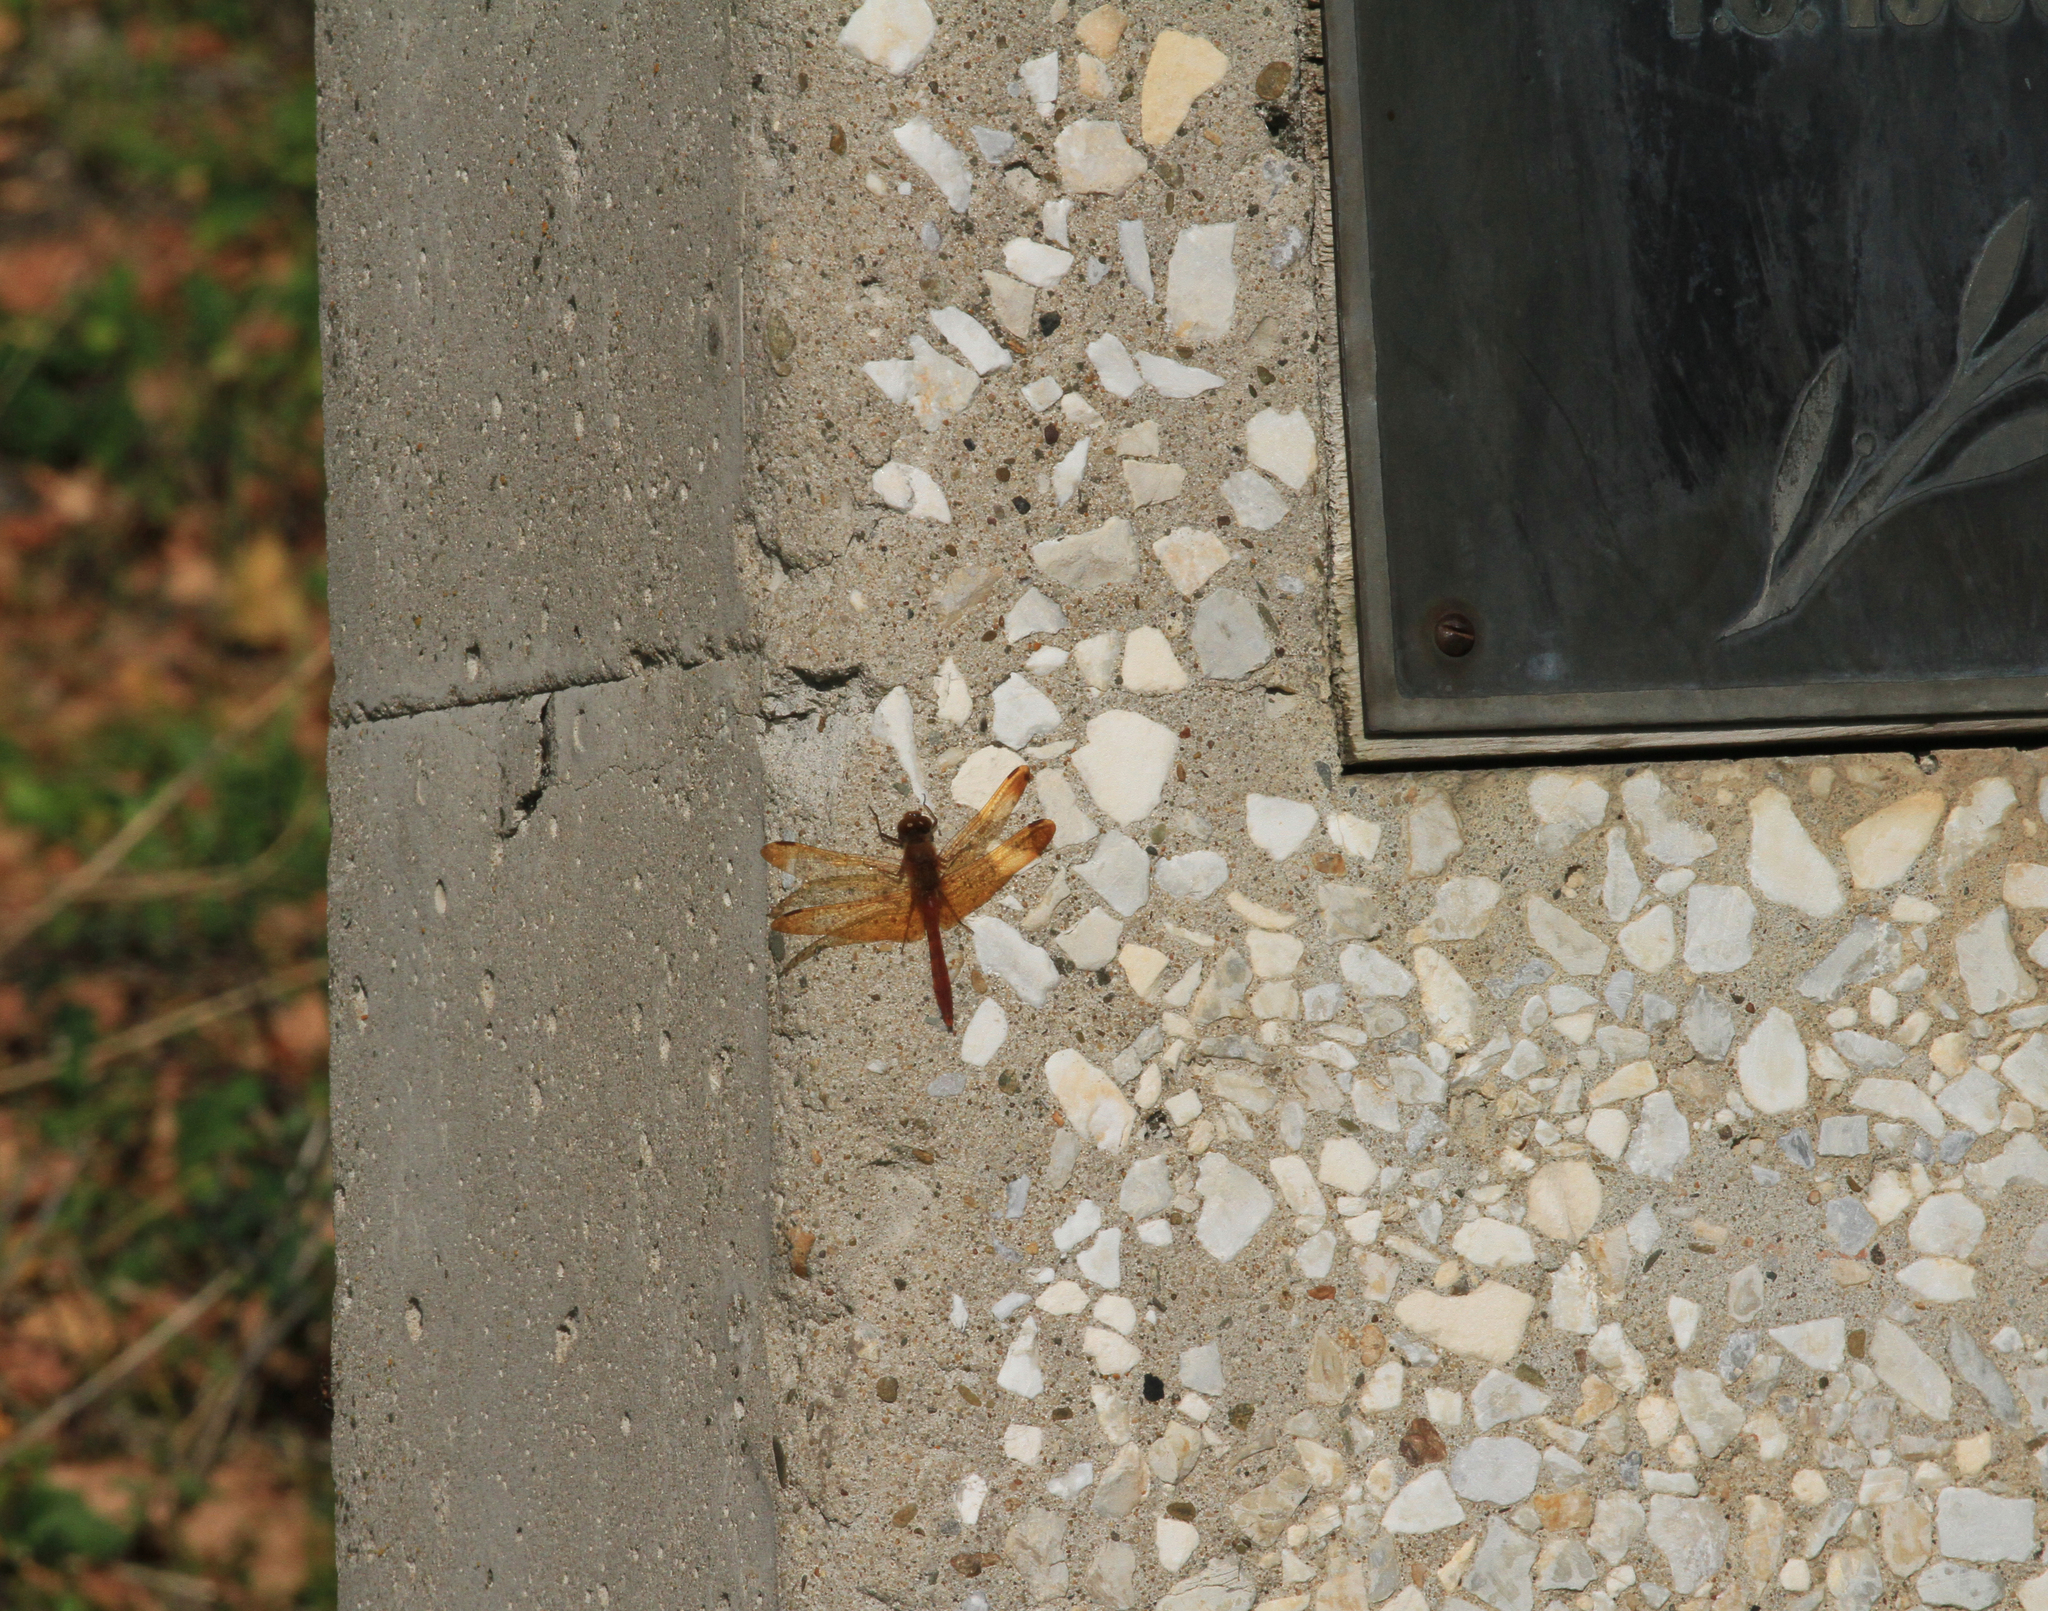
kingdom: Animalia
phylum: Arthropoda
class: Insecta
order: Odonata
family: Libellulidae
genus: Sympetrum
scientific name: Sympetrum croceolum
